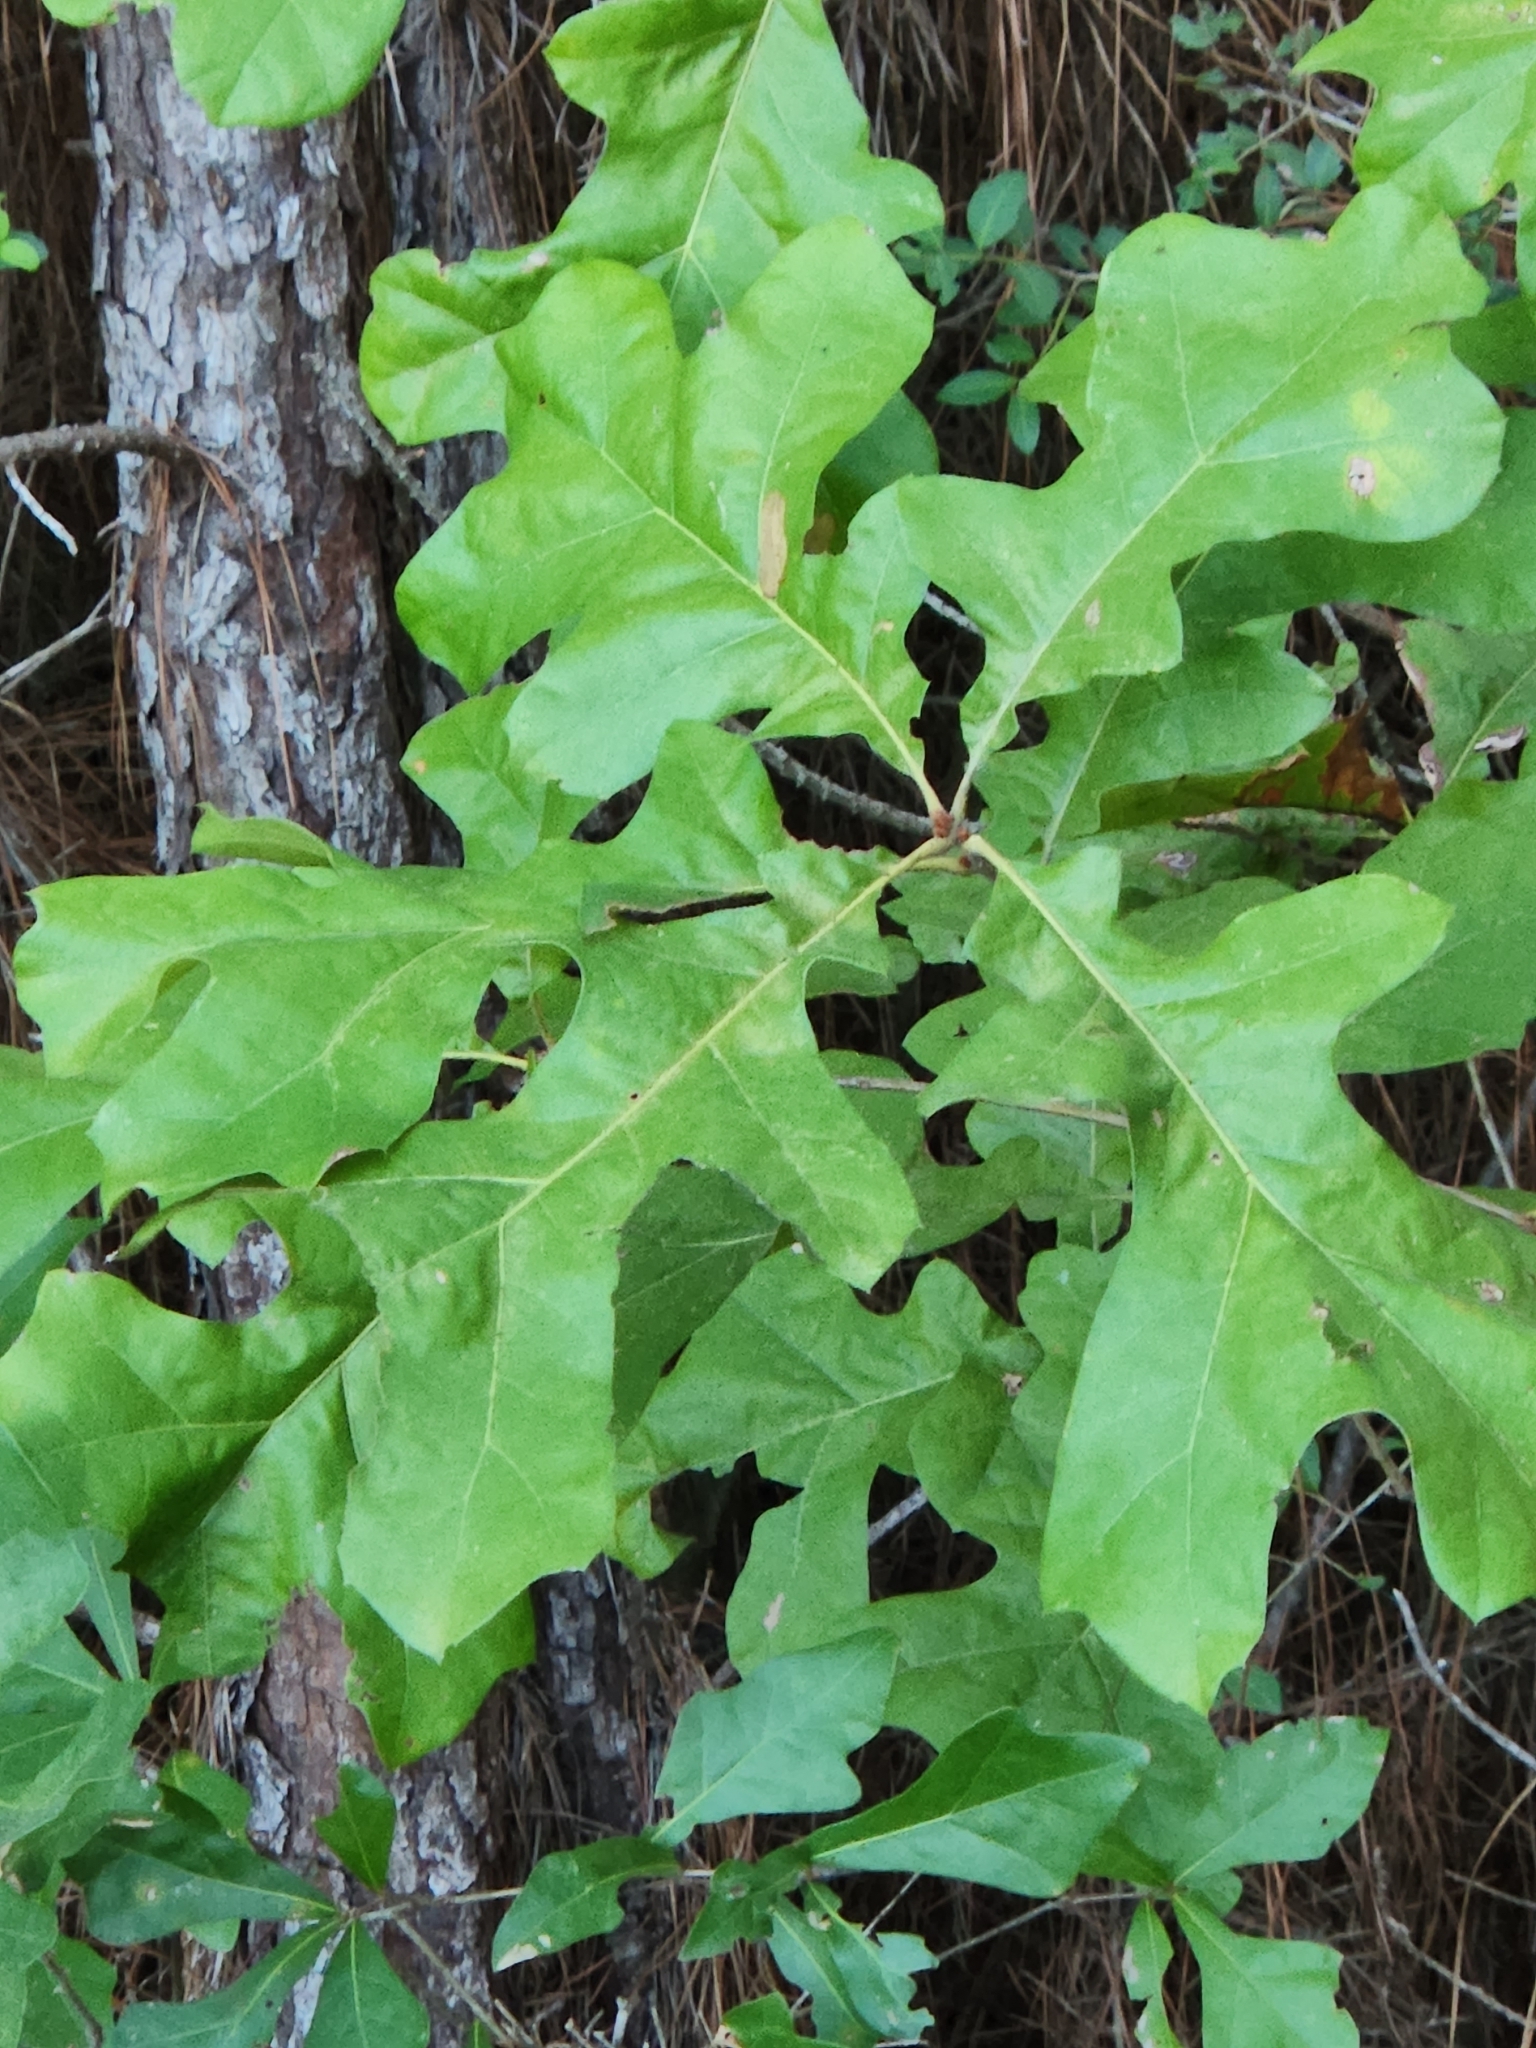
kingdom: Plantae
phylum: Tracheophyta
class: Magnoliopsida
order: Fagales
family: Fagaceae
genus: Quercus
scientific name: Quercus nigra
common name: Water oak
